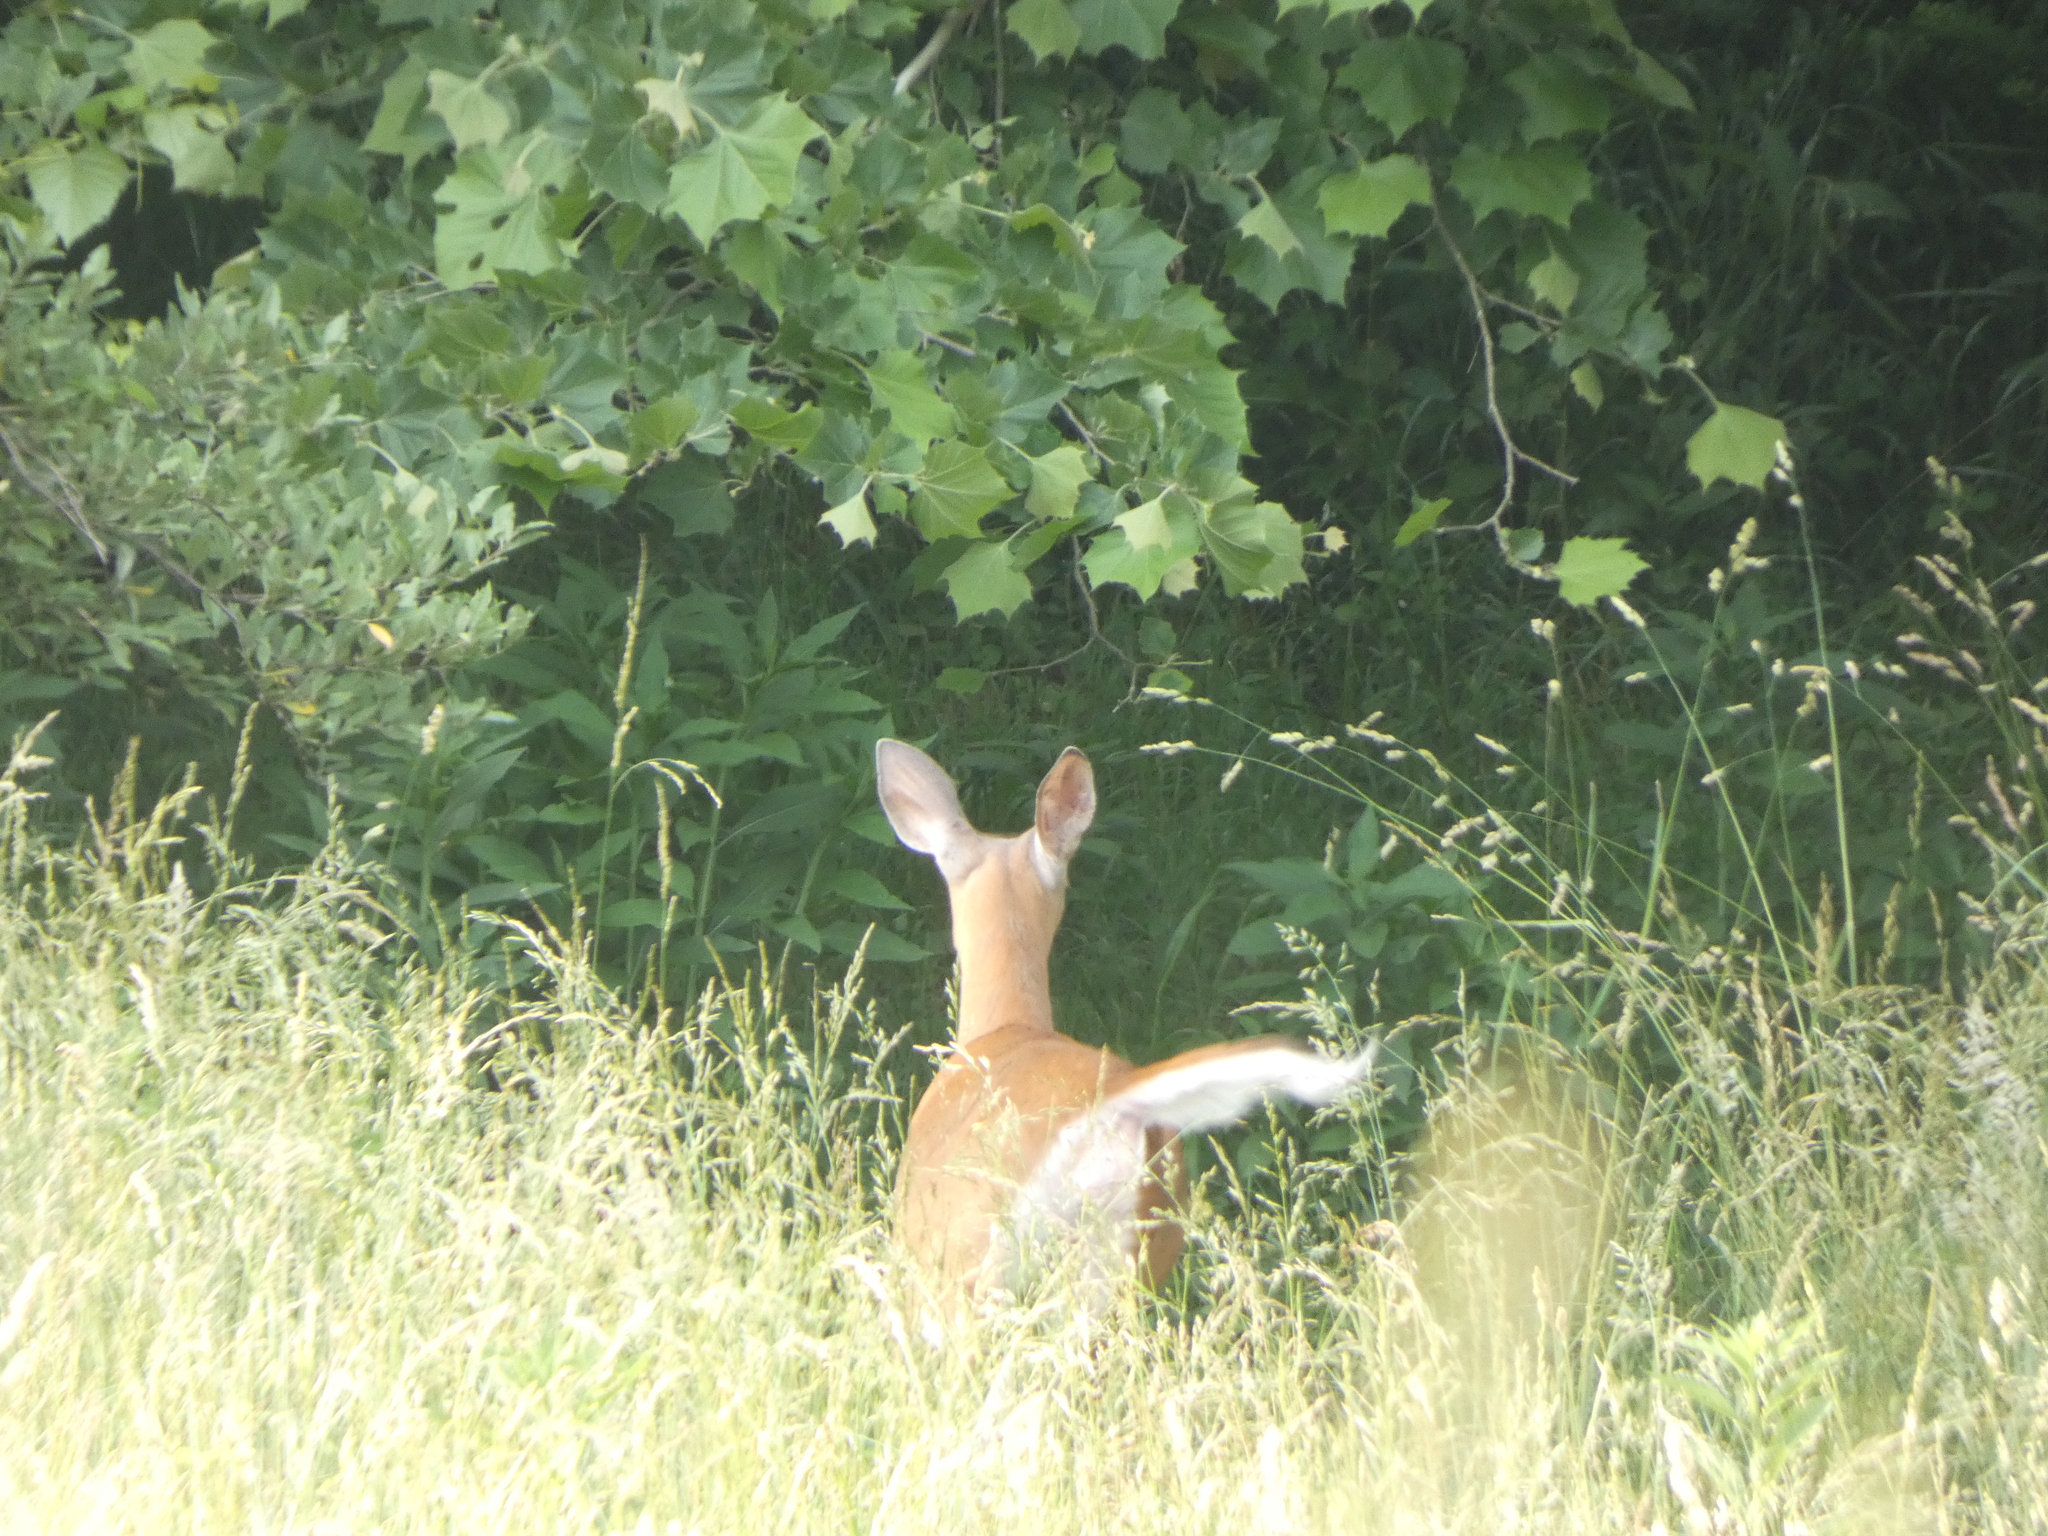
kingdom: Animalia
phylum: Chordata
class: Mammalia
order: Artiodactyla
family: Cervidae
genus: Odocoileus
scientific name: Odocoileus virginianus
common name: White-tailed deer
